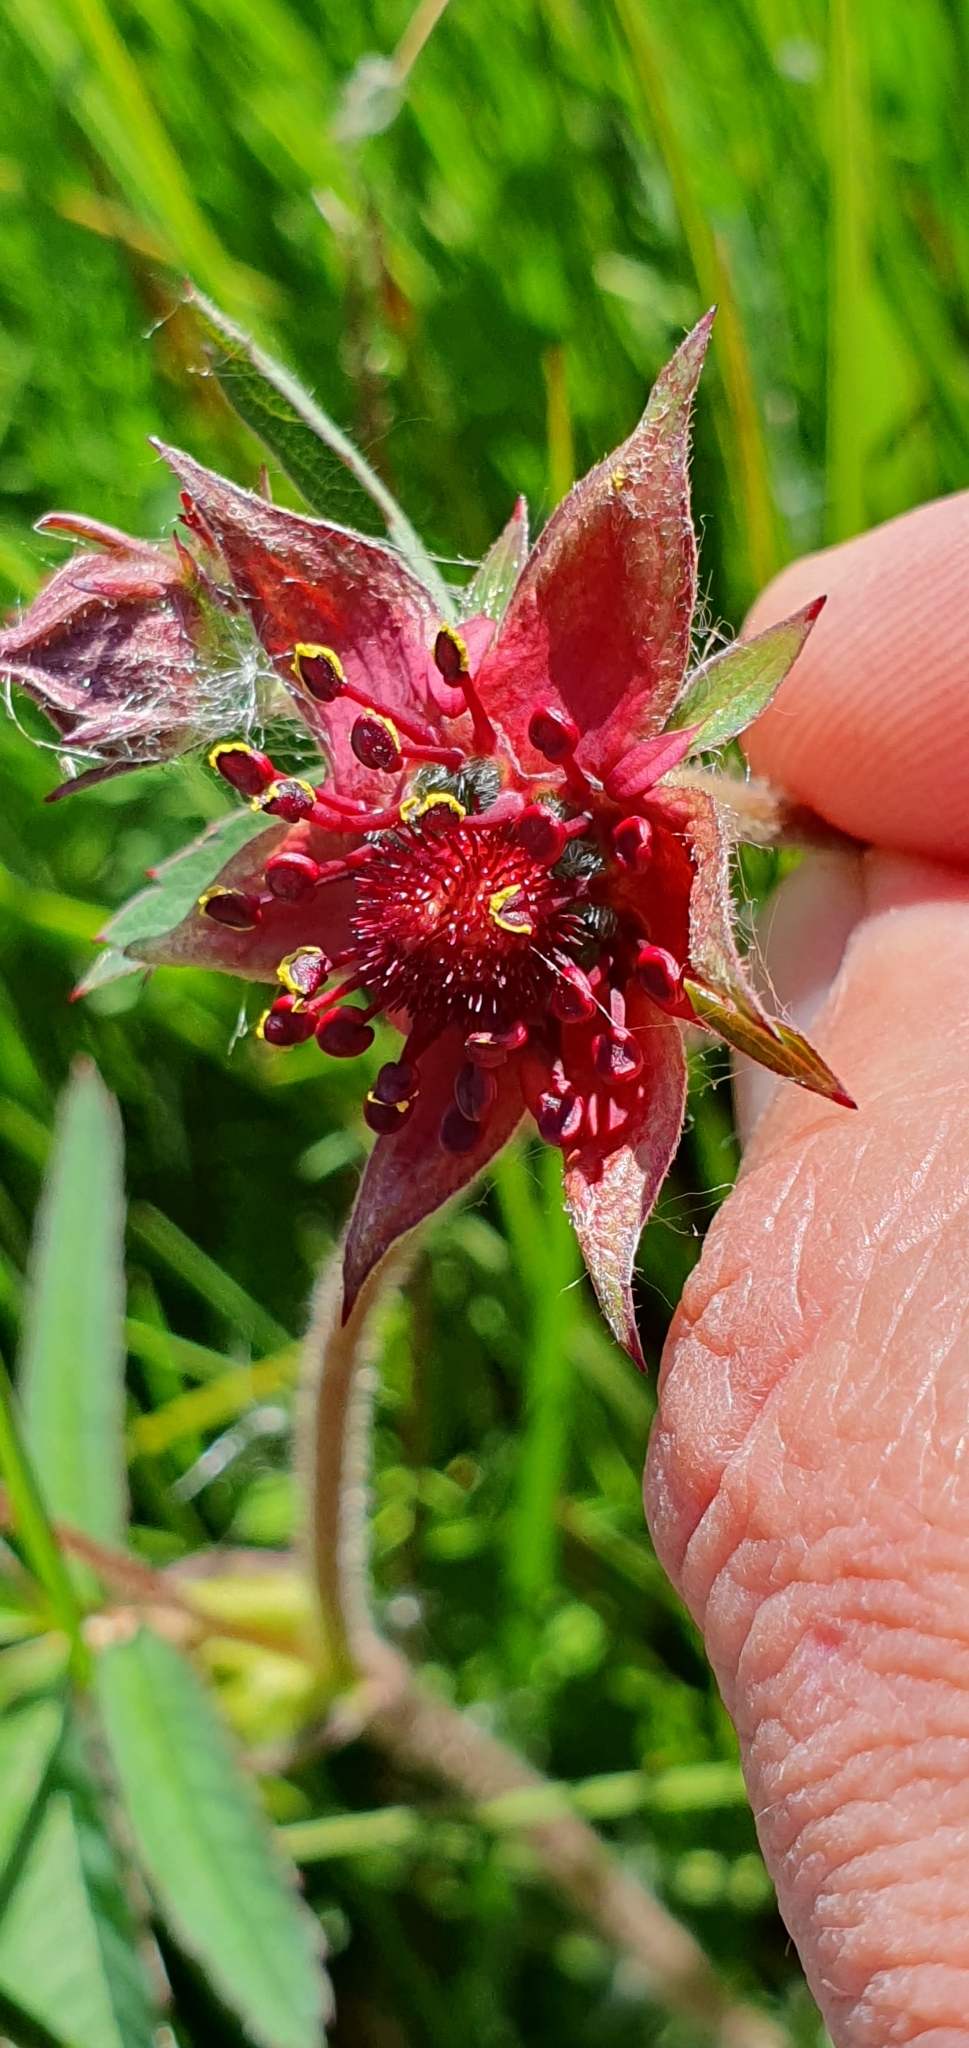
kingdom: Plantae
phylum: Tracheophyta
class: Magnoliopsida
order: Rosales
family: Rosaceae
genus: Comarum
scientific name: Comarum palustre
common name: Marsh cinquefoil
